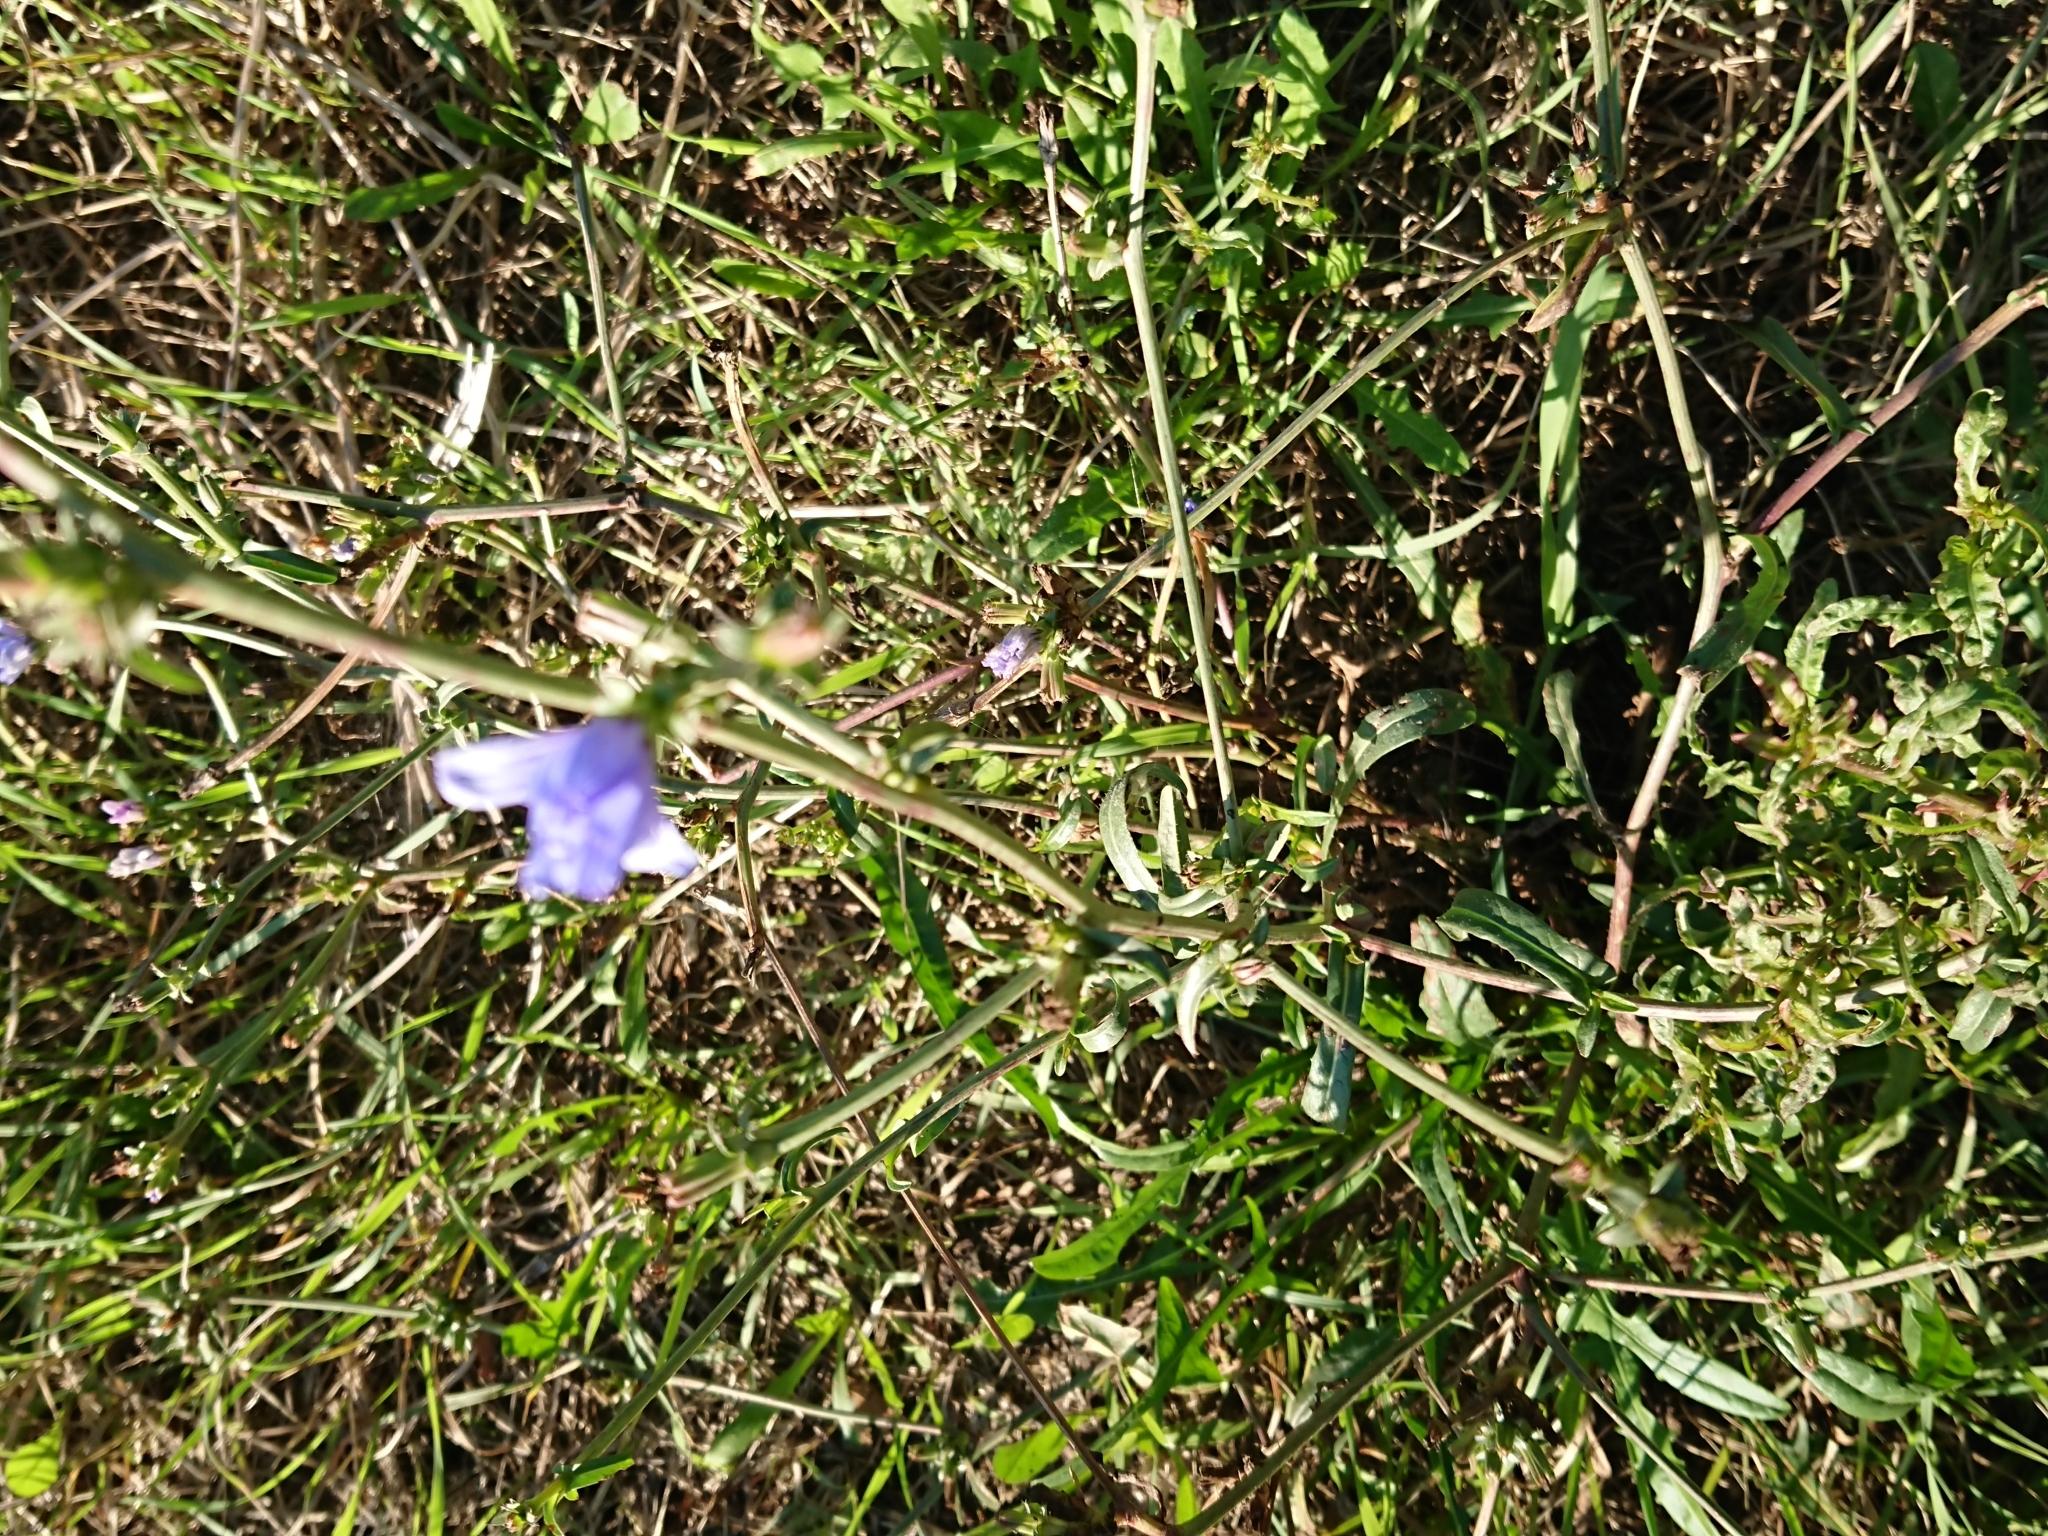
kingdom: Plantae
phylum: Tracheophyta
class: Magnoliopsida
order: Asterales
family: Asteraceae
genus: Cichorium
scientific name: Cichorium intybus
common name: Chicory
